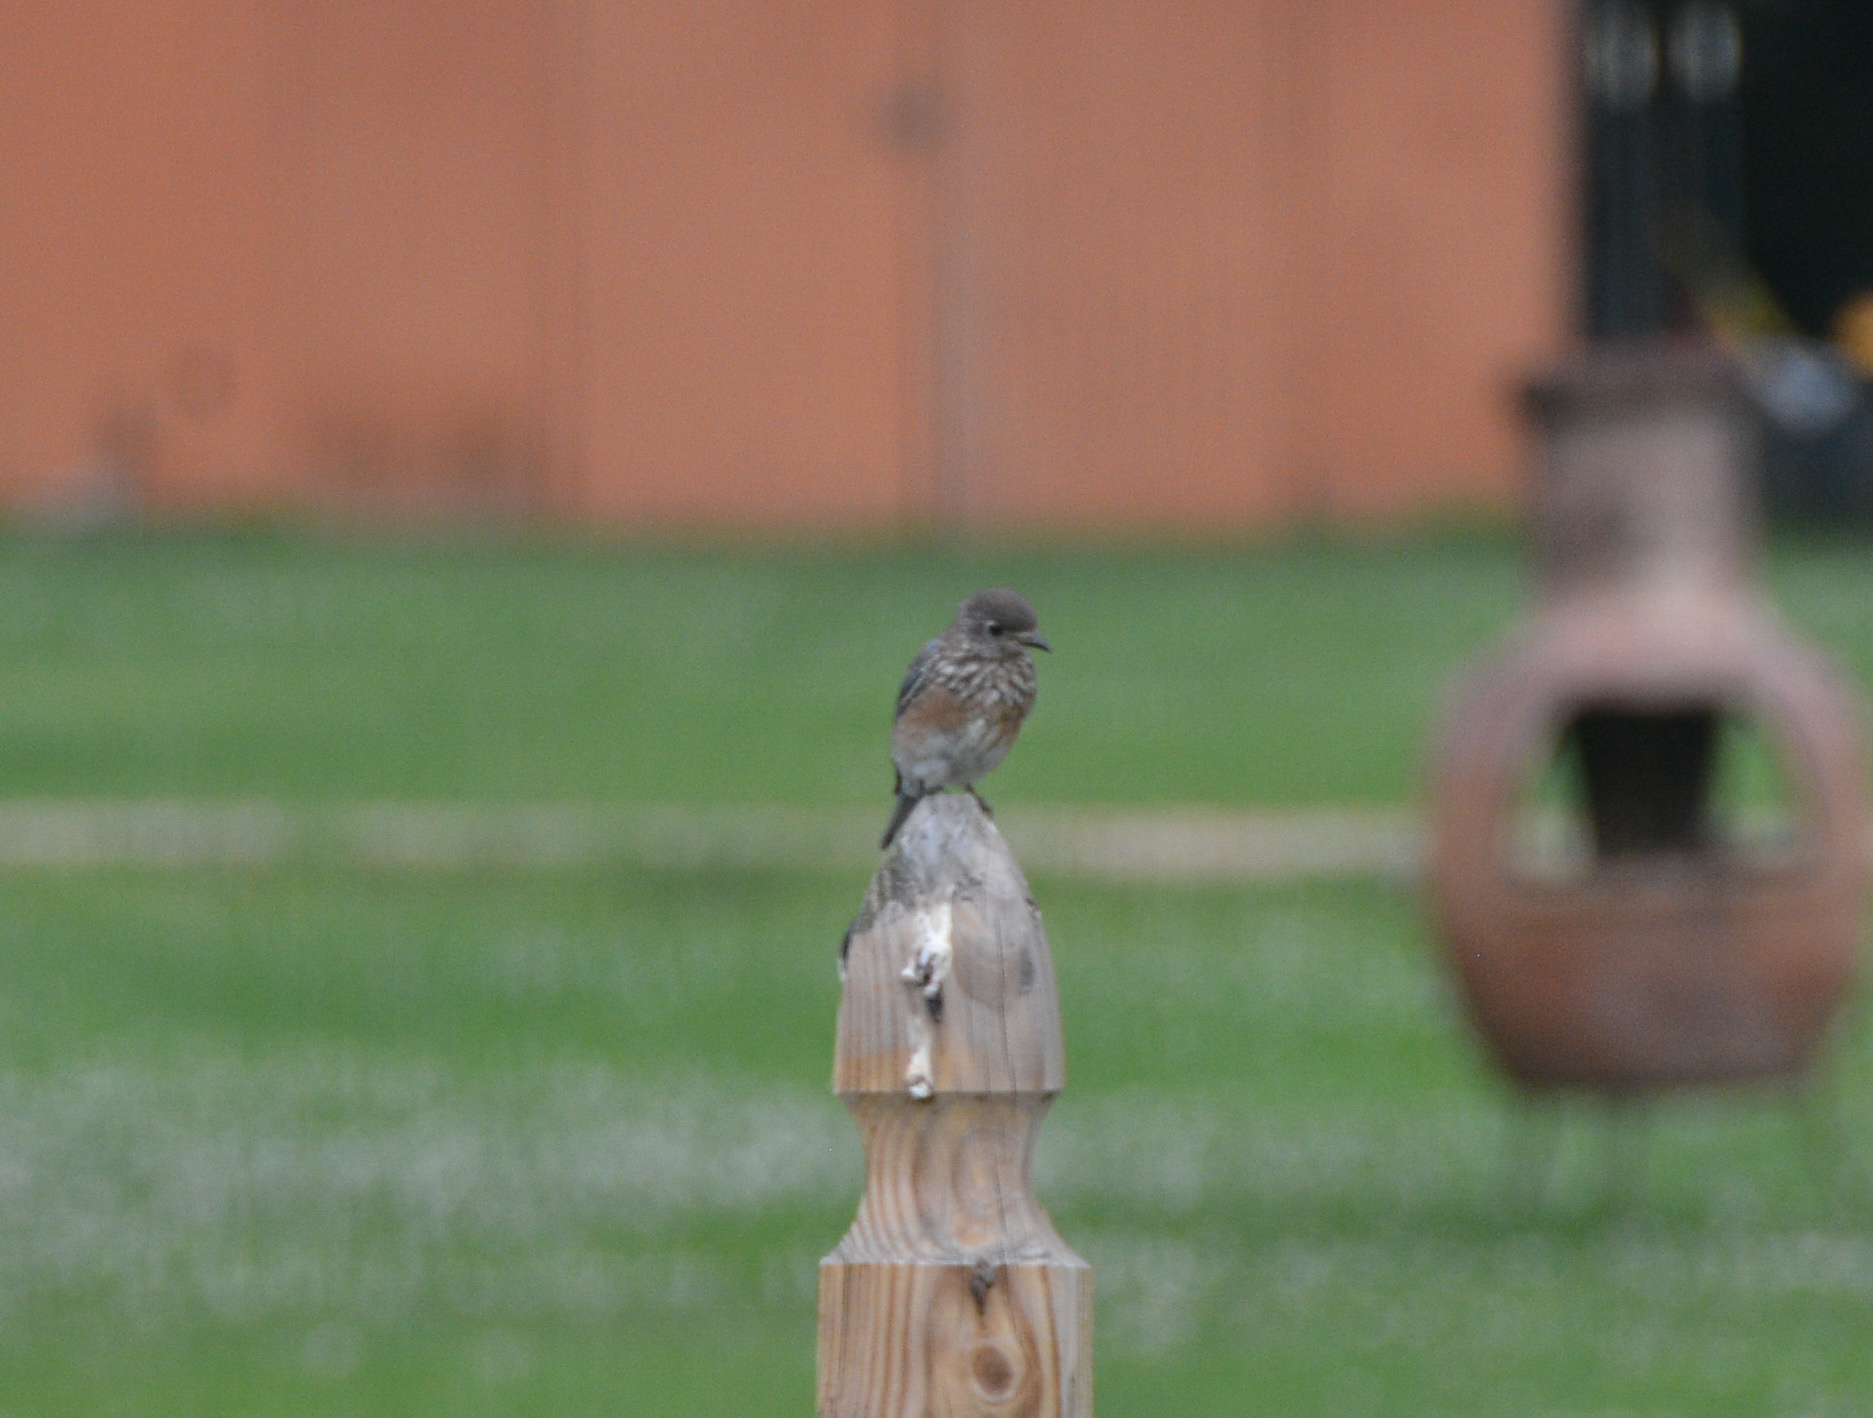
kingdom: Animalia
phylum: Chordata
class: Aves
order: Passeriformes
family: Turdidae
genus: Sialia
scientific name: Sialia sialis
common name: Eastern bluebird
